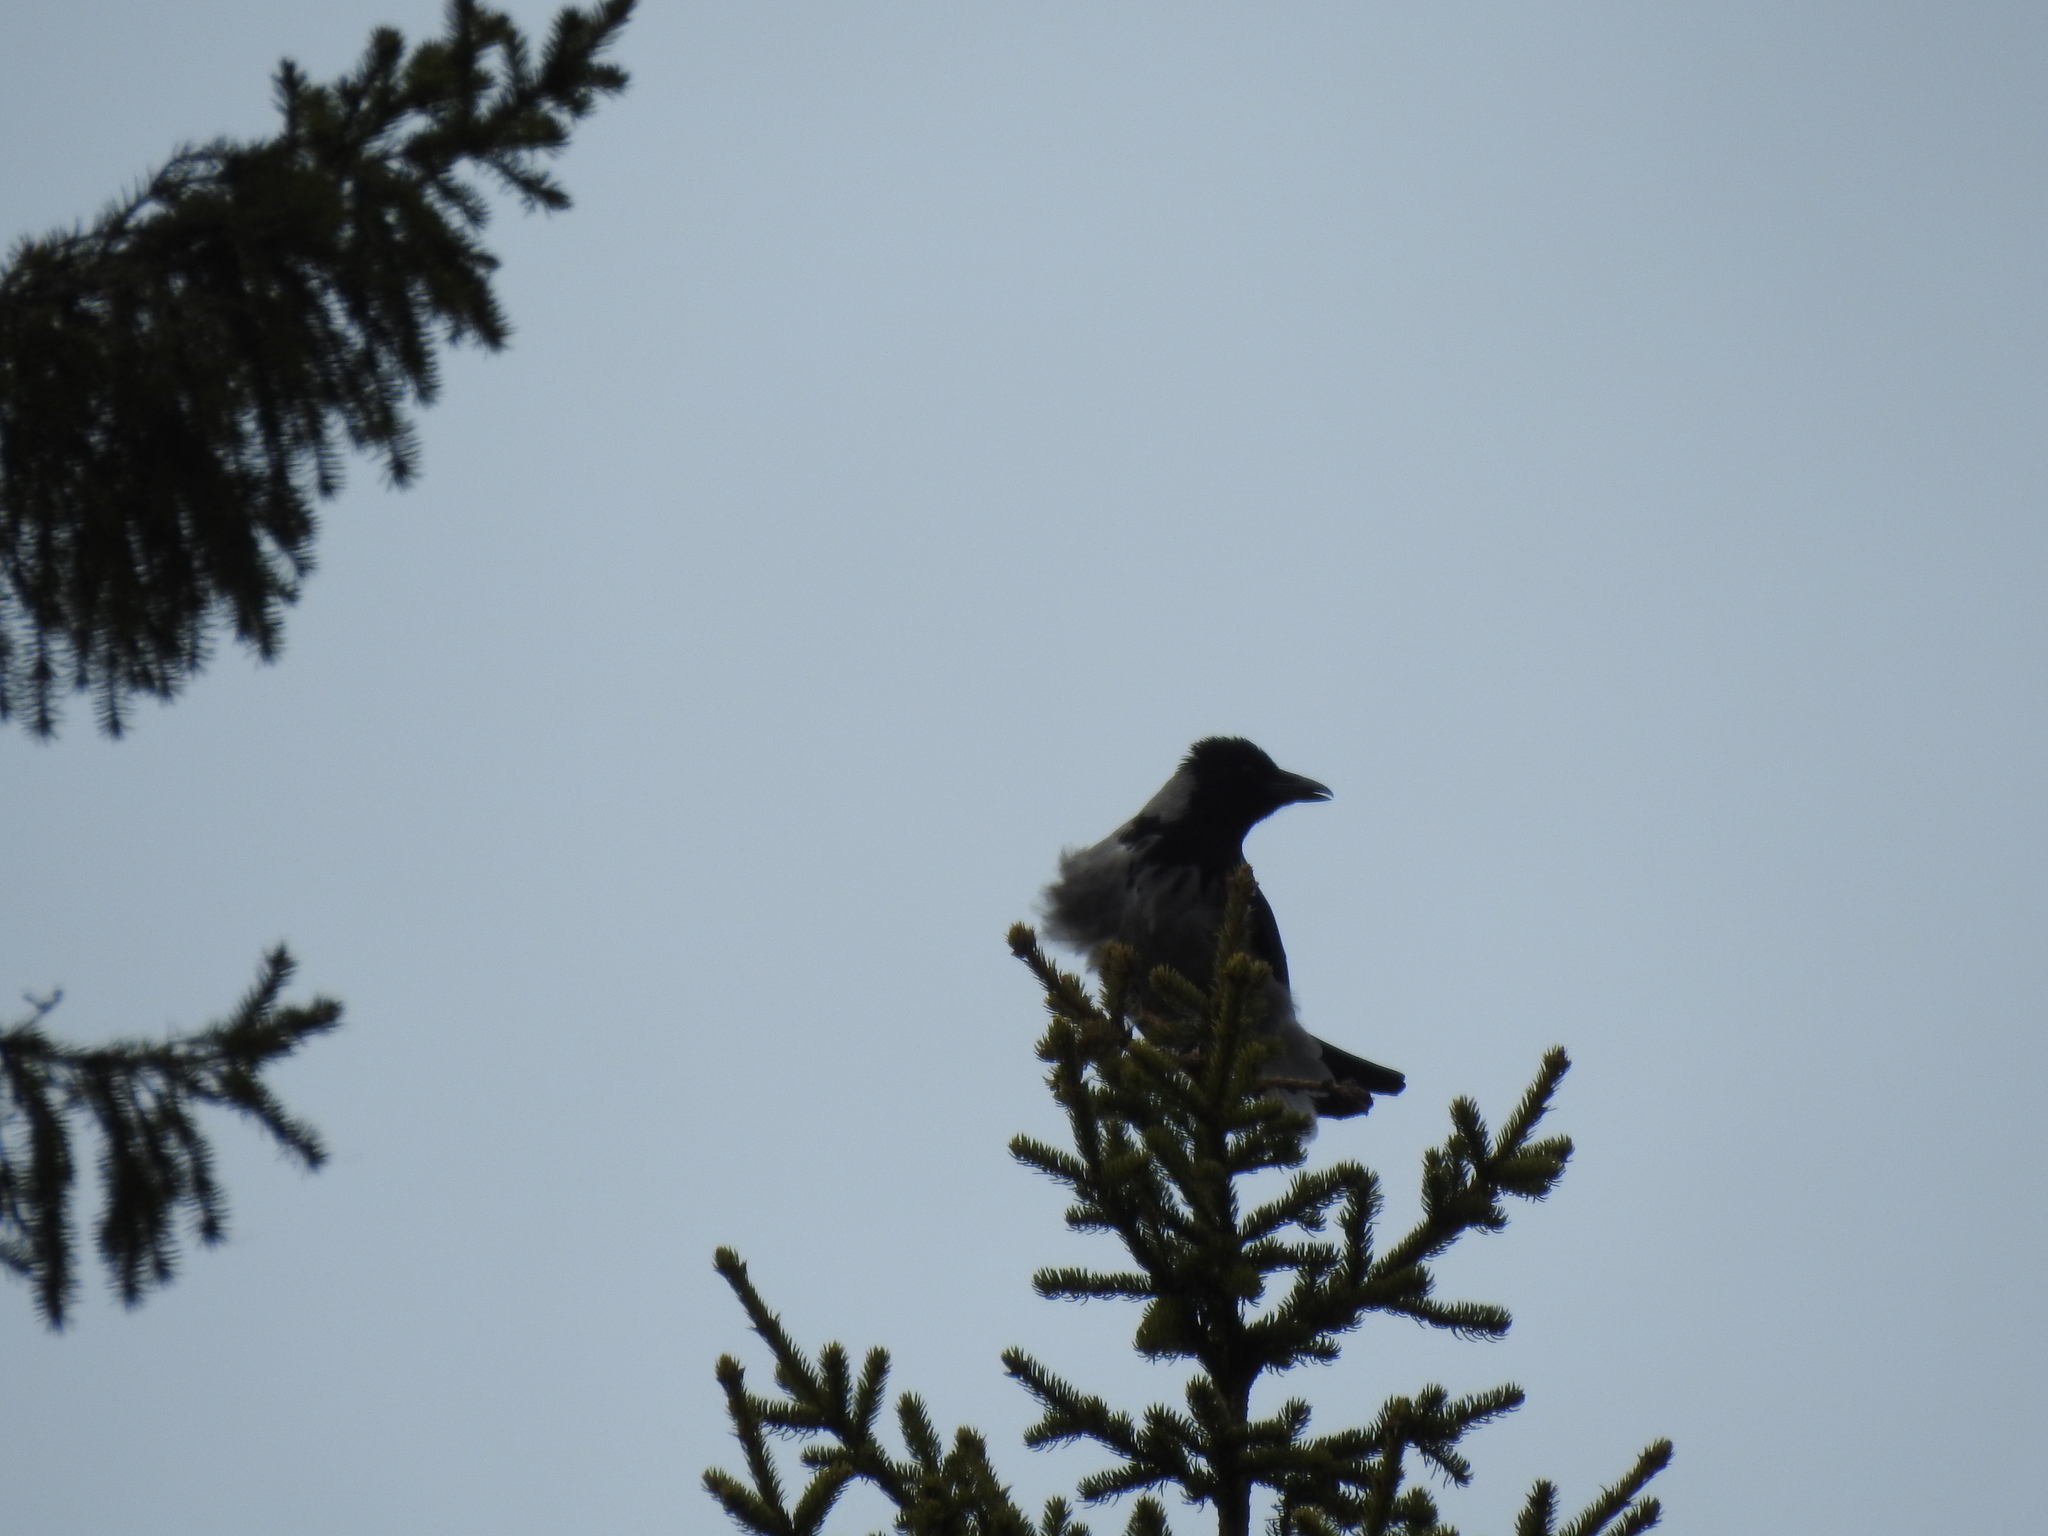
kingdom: Animalia
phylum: Chordata
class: Aves
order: Passeriformes
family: Corvidae
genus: Corvus
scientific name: Corvus cornix
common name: Hooded crow
